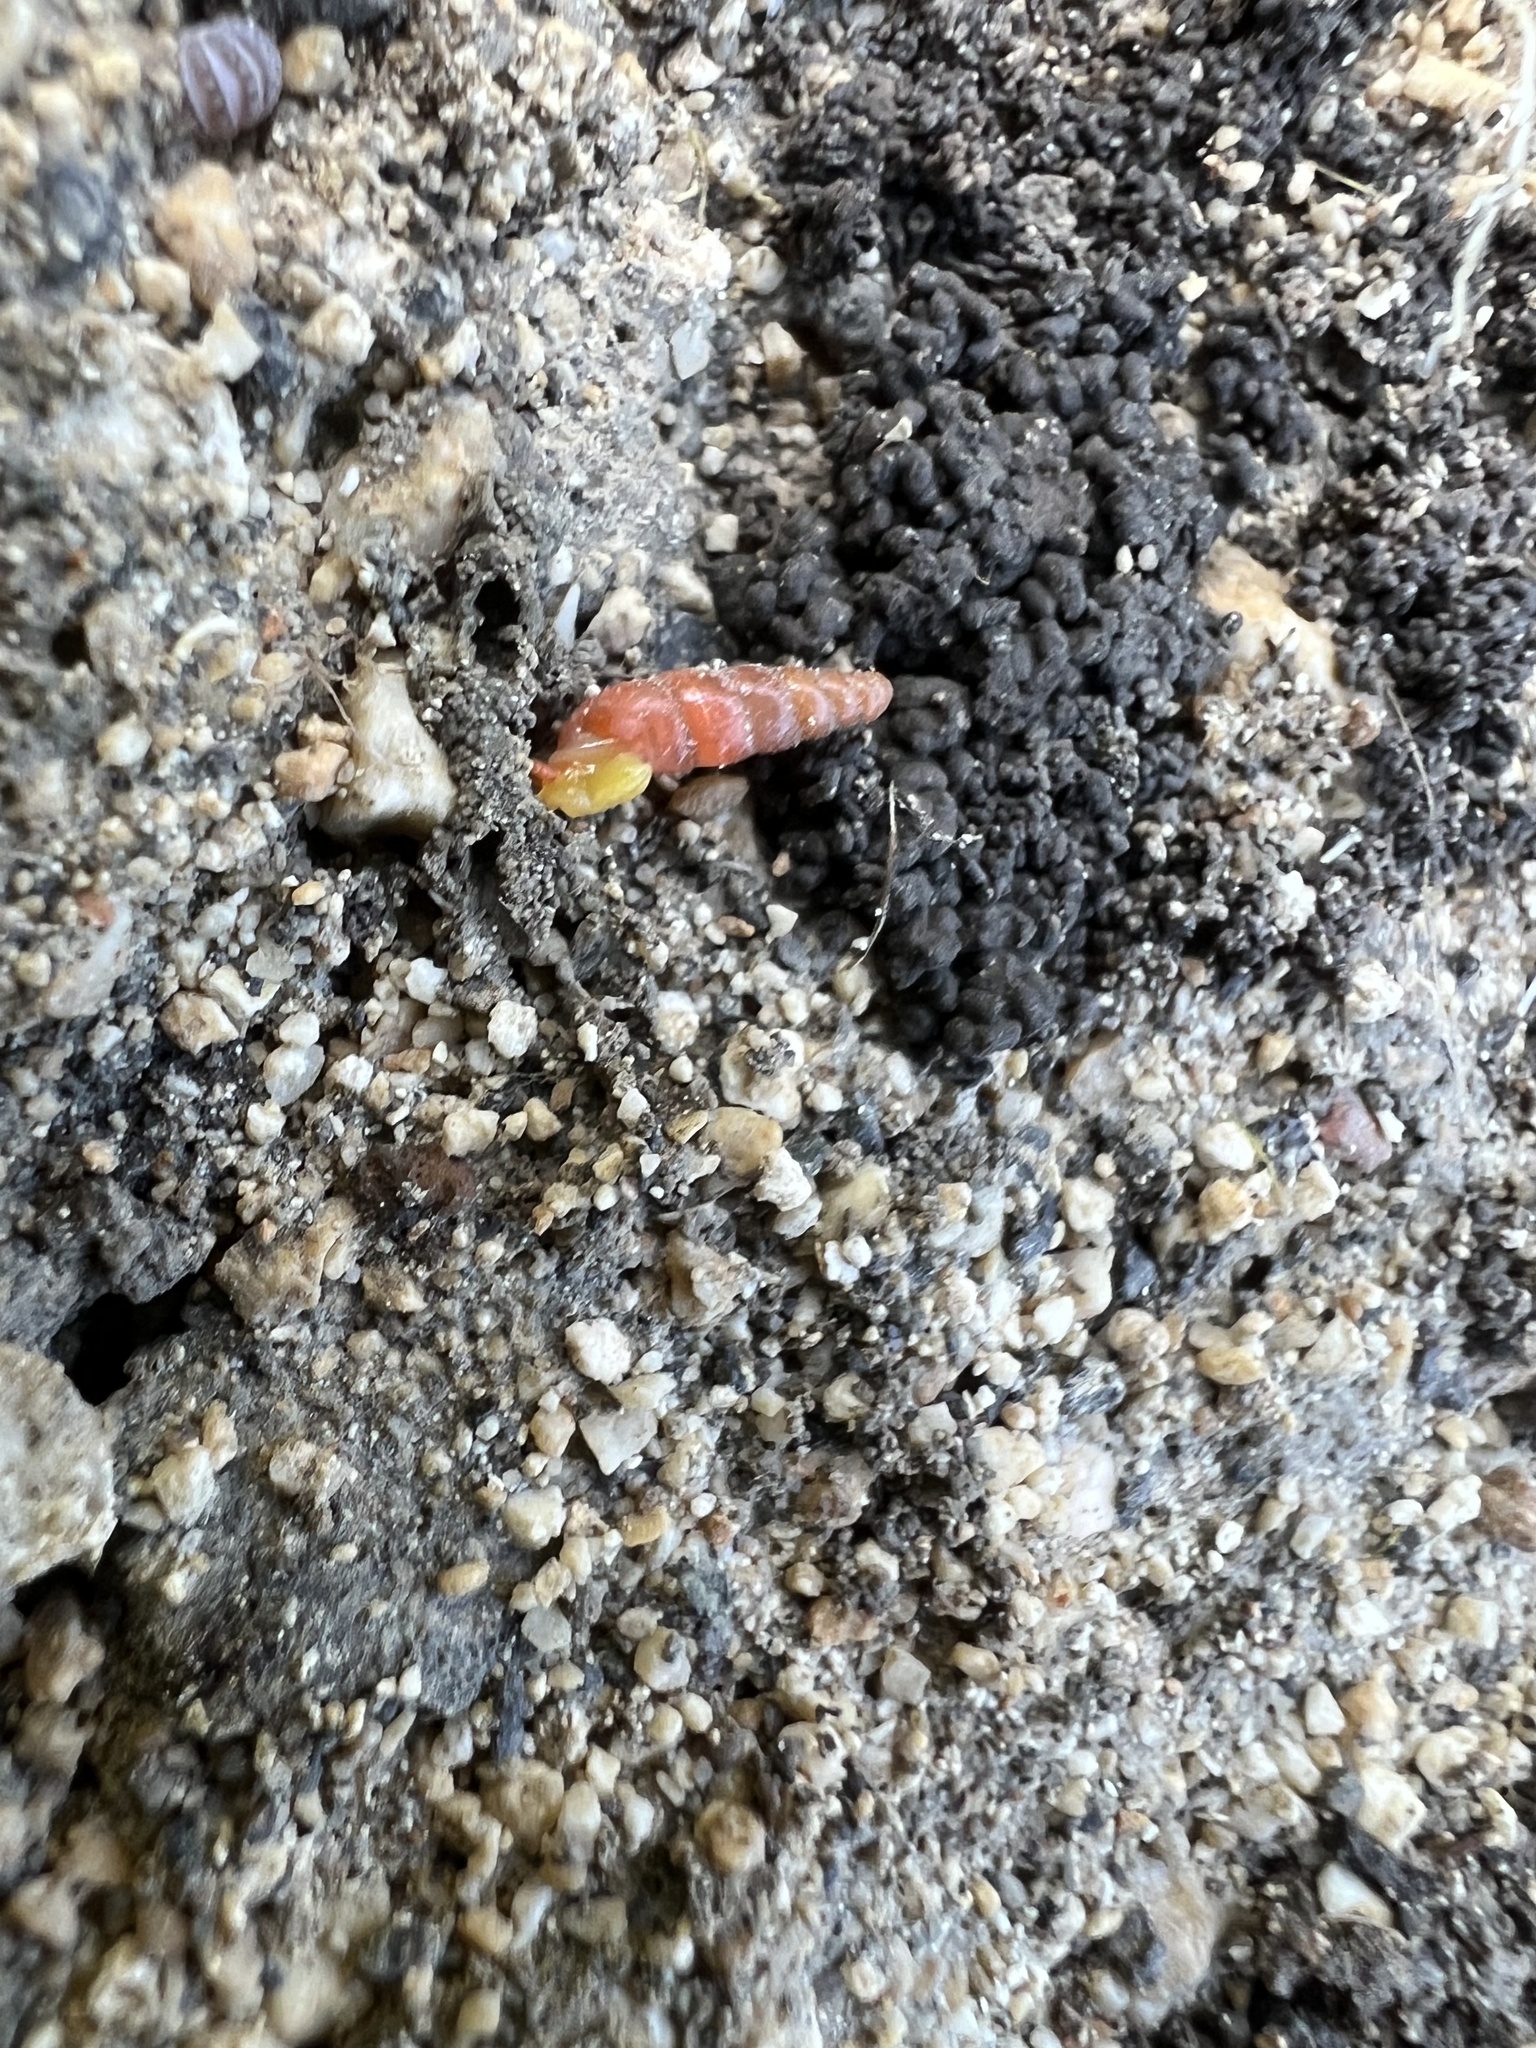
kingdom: Animalia
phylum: Mollusca
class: Gastropoda
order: Stylommatophora
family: Streptaxidae
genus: Gulella
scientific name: Gulella bicolor
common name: Snail
